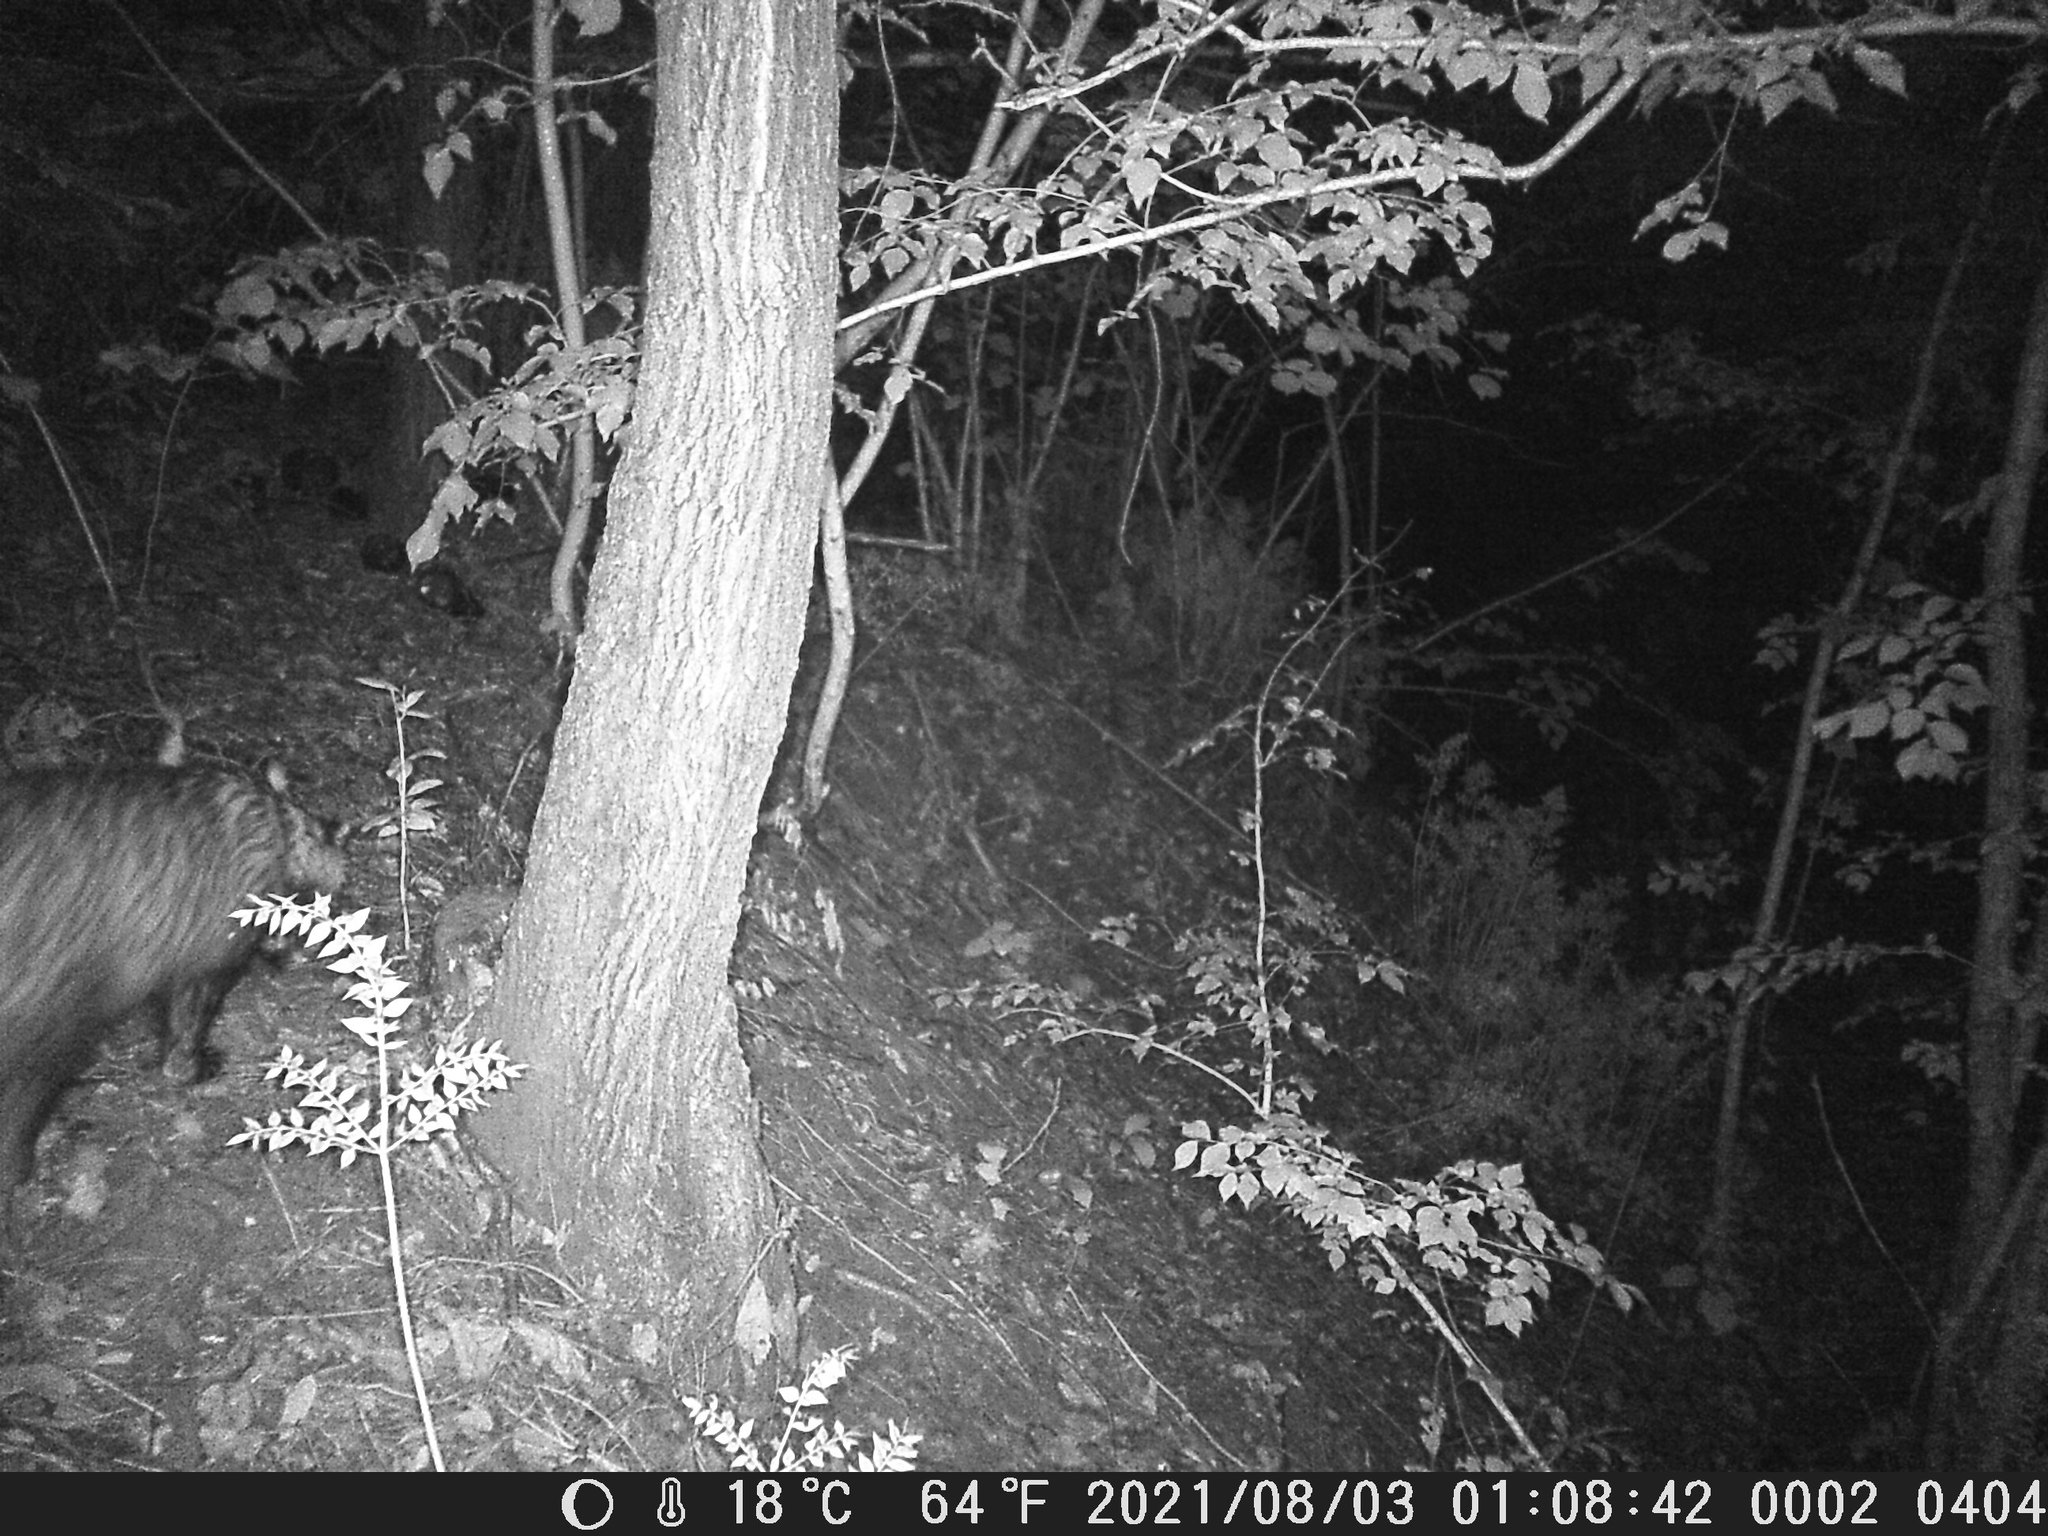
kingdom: Animalia
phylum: Chordata
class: Mammalia
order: Carnivora
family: Mustelidae
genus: Meles
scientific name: Meles meles
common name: Eurasian badger
